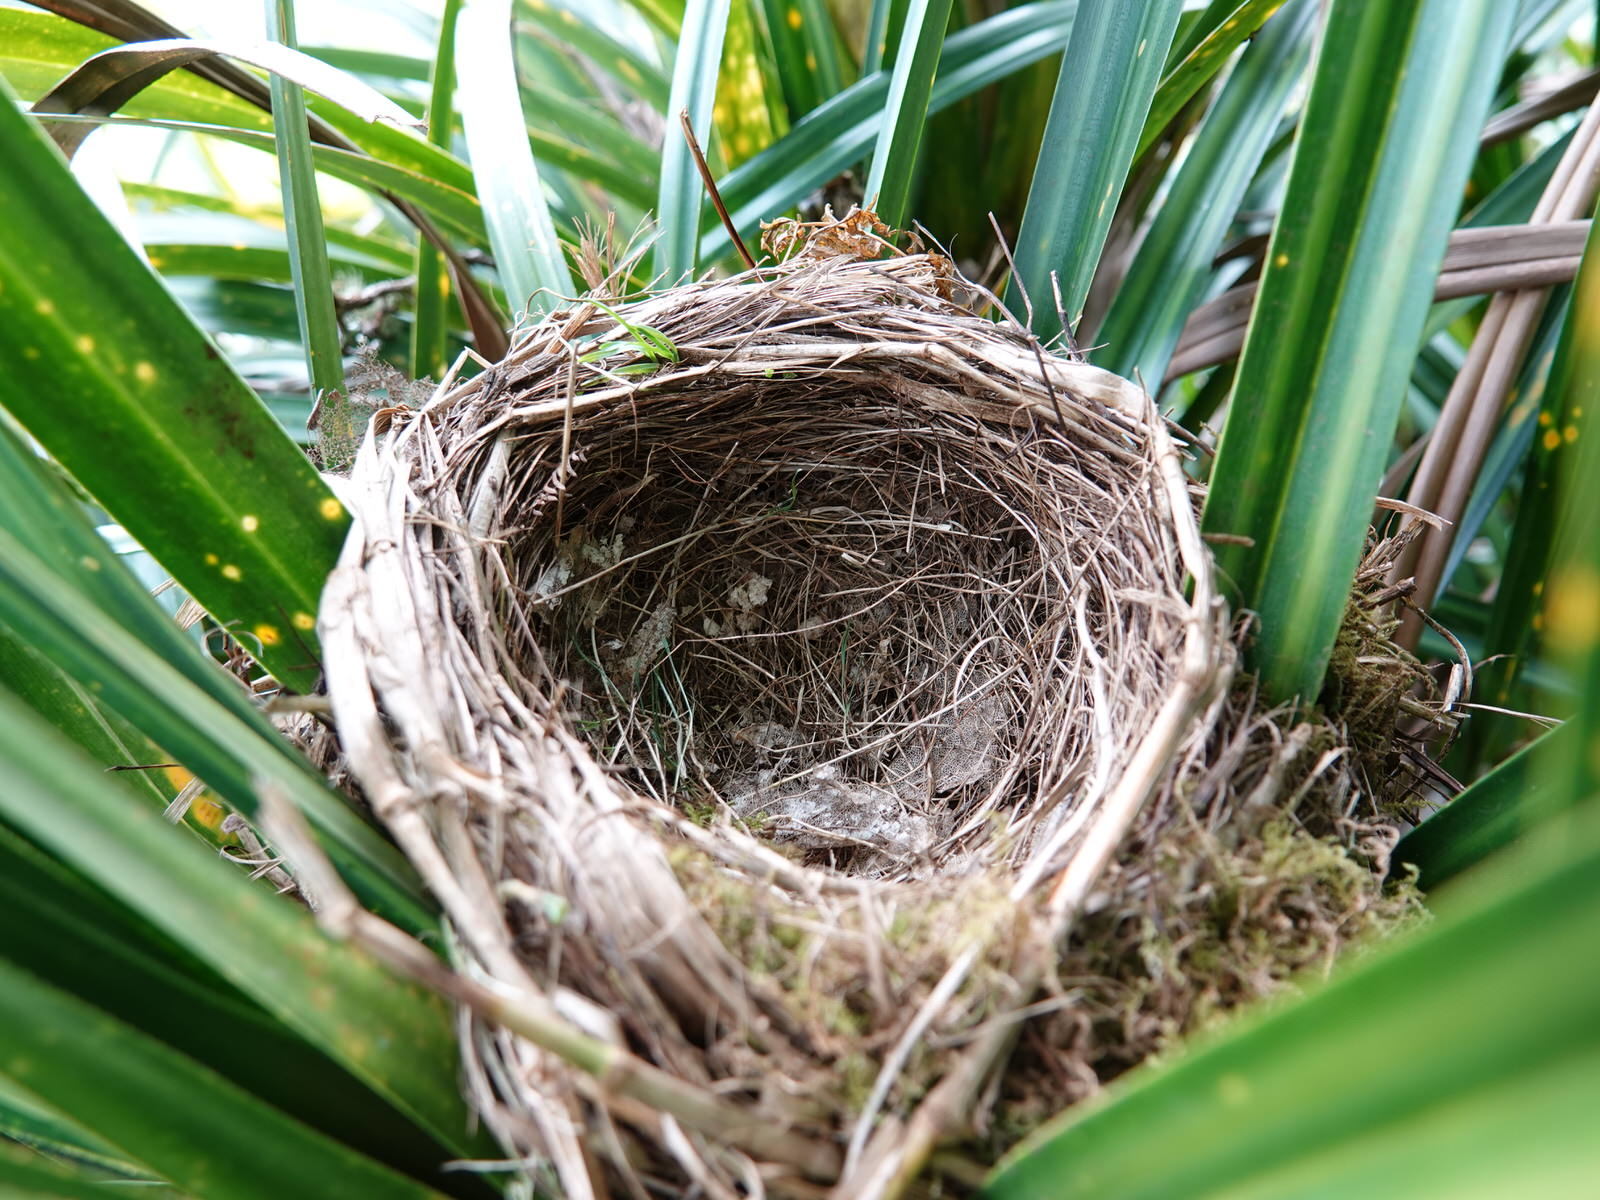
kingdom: Animalia
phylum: Chordata
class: Aves
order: Passeriformes
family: Turdidae
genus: Turdus
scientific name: Turdus merula
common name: Common blackbird
